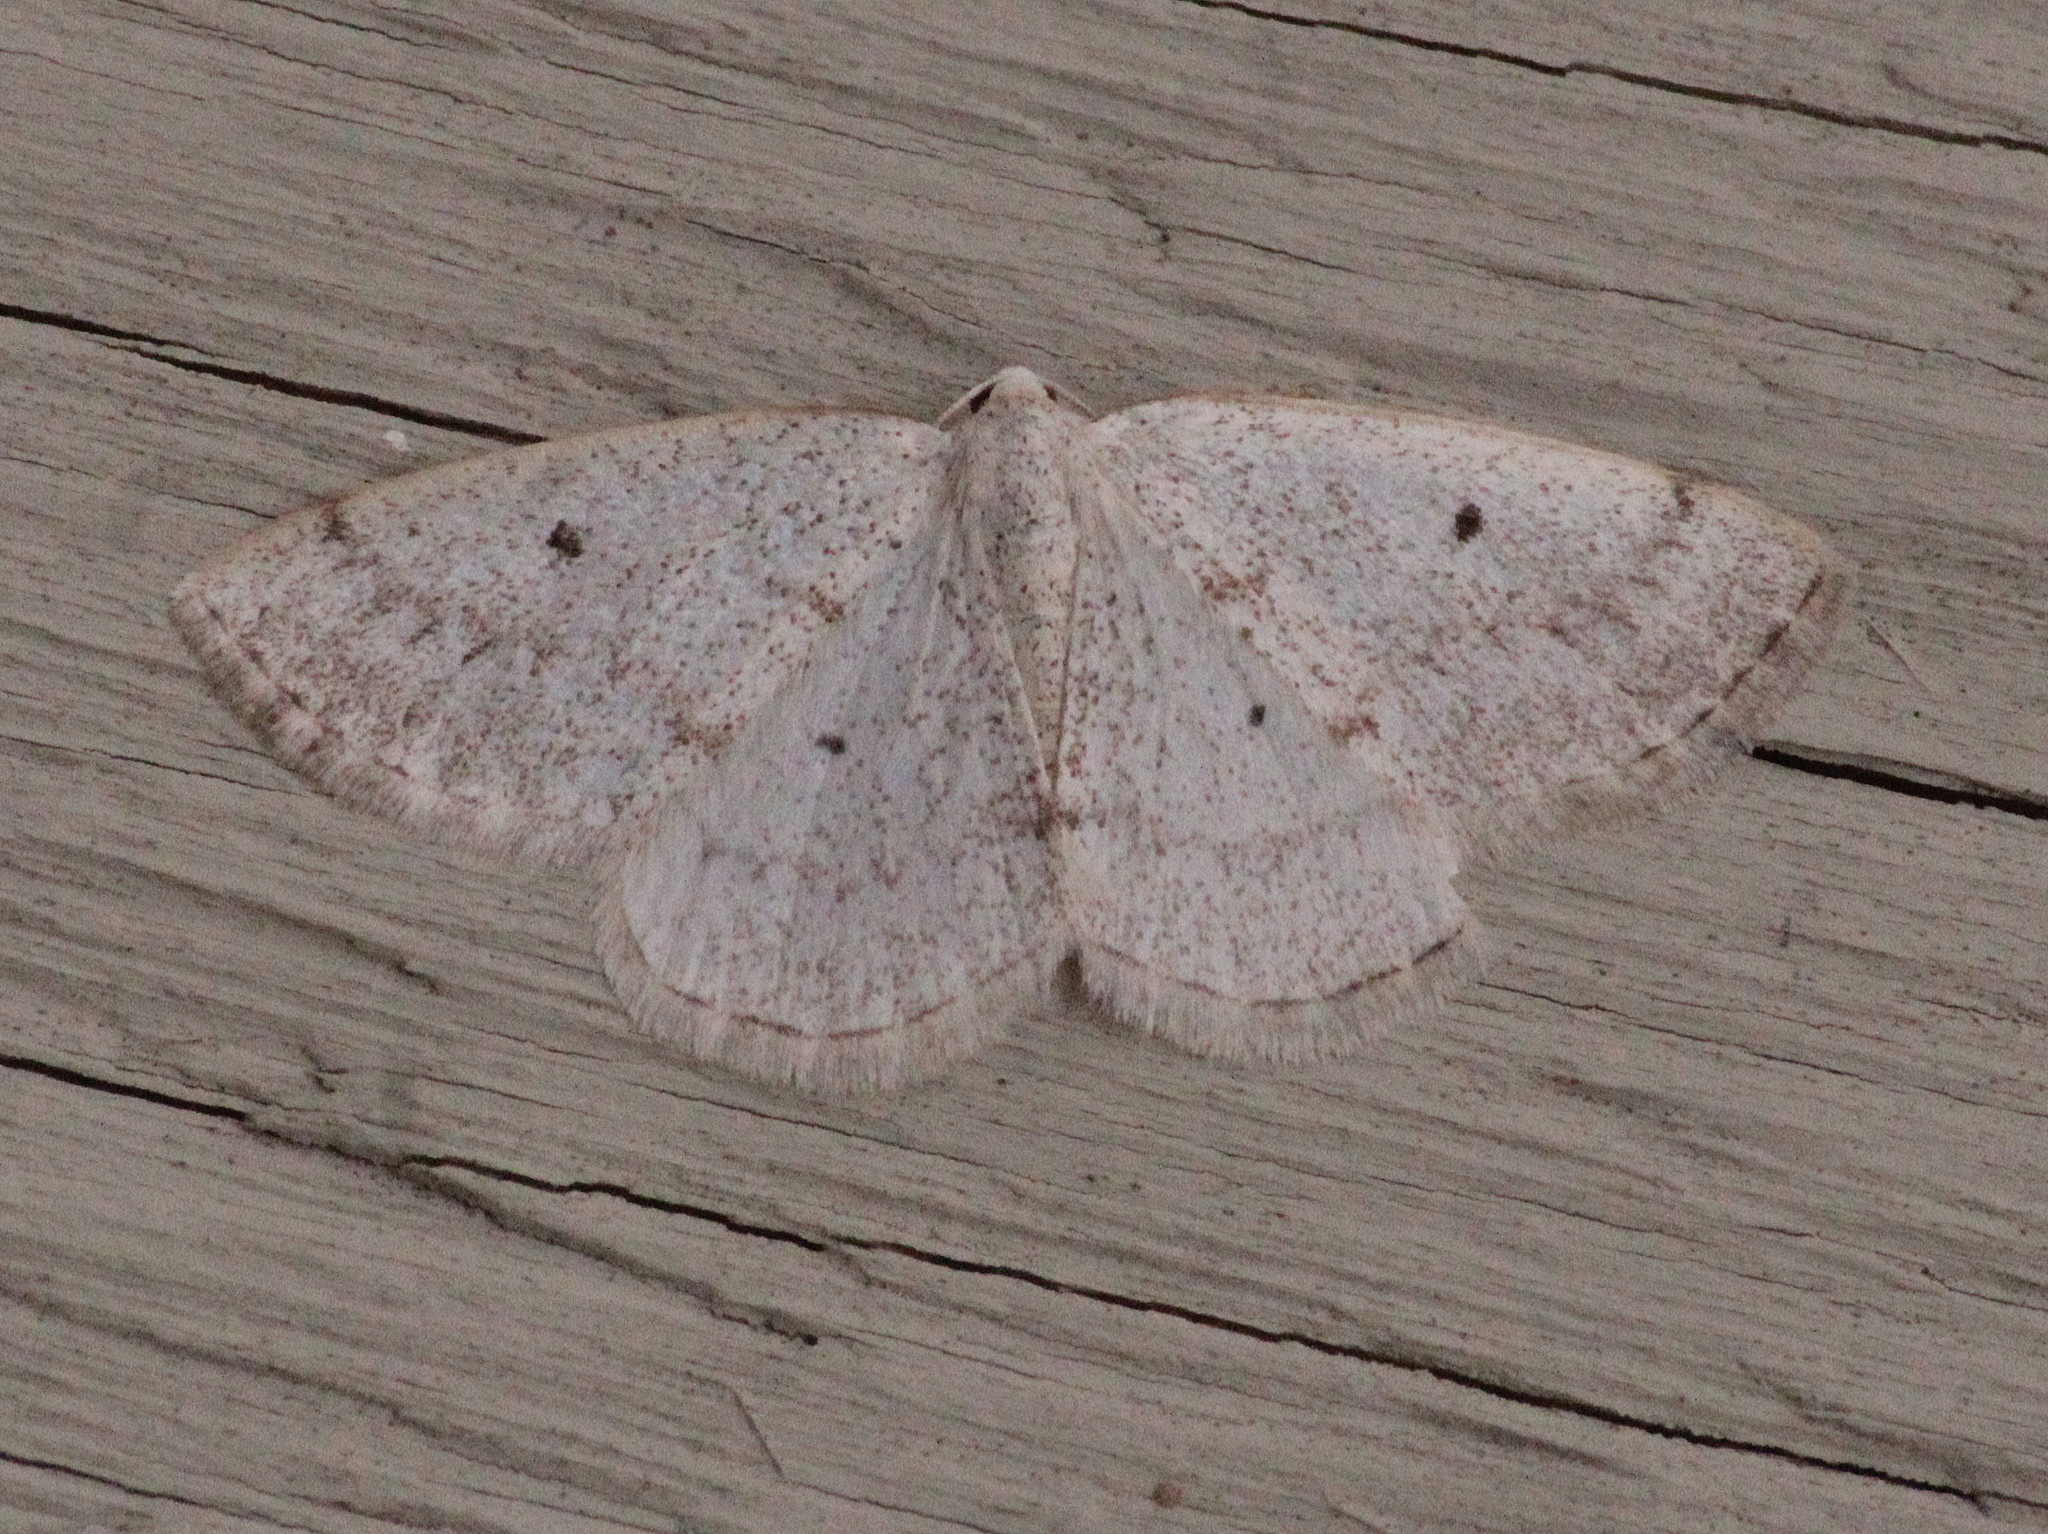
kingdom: Animalia
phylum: Arthropoda
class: Insecta
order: Lepidoptera
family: Geometridae
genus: Lomographa
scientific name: Lomographa glomeraria
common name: Gray spring moth
